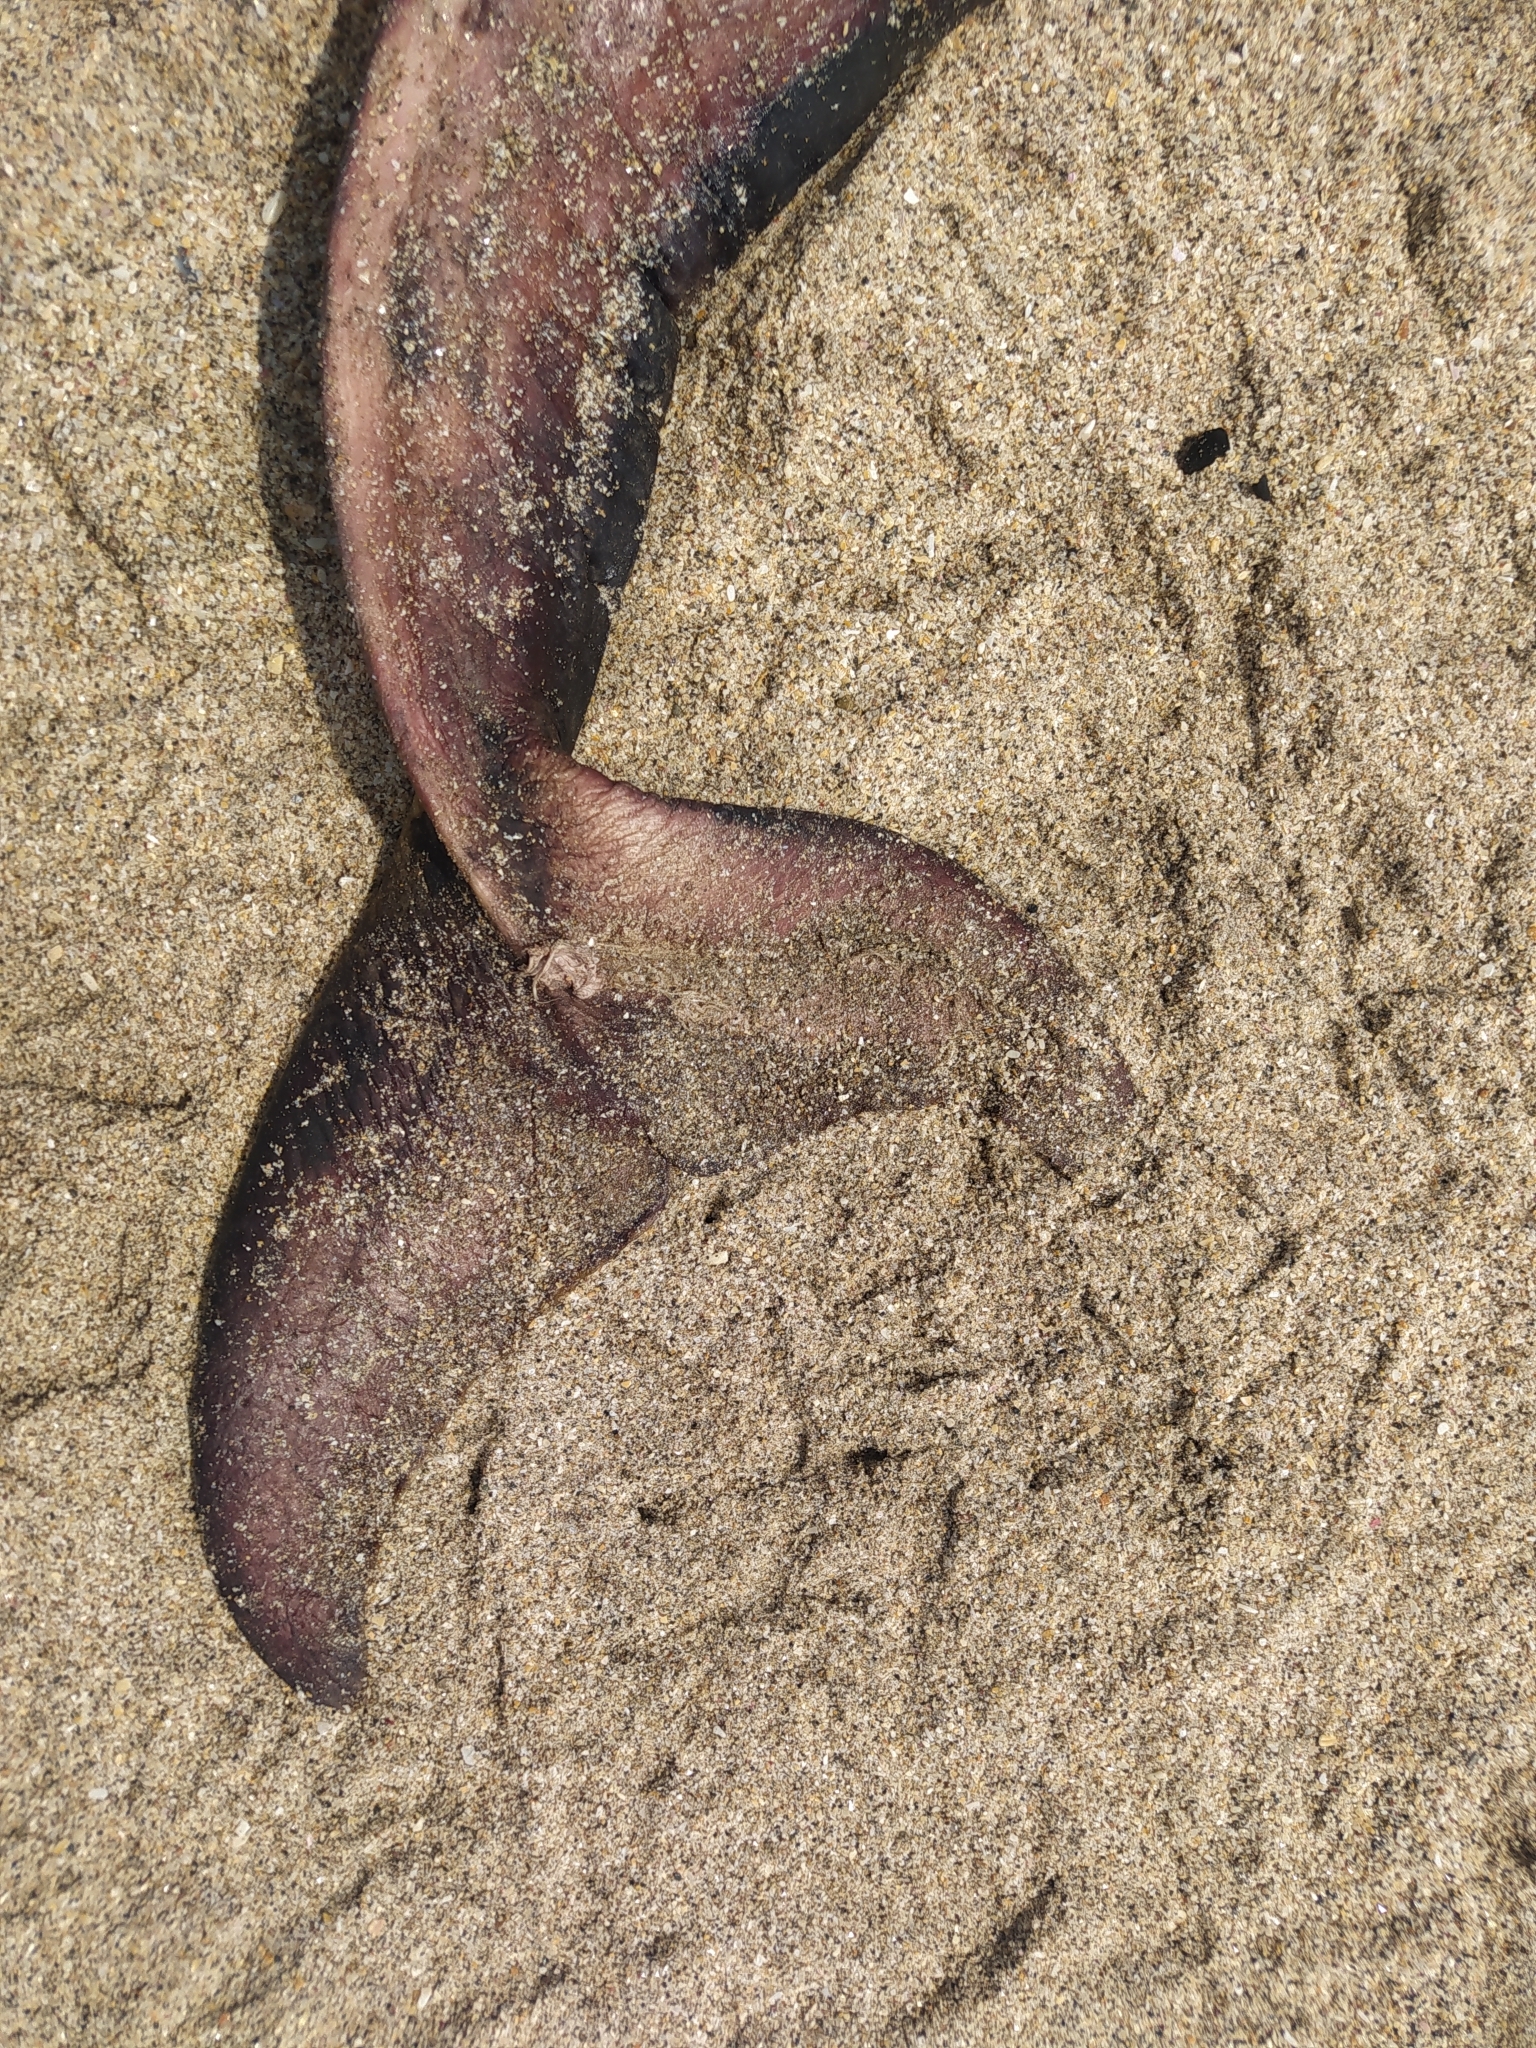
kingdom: Animalia
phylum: Chordata
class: Mammalia
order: Cetacea
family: Delphinidae
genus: Tursiops
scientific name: Tursiops truncatus
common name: Bottlenose dolphin
